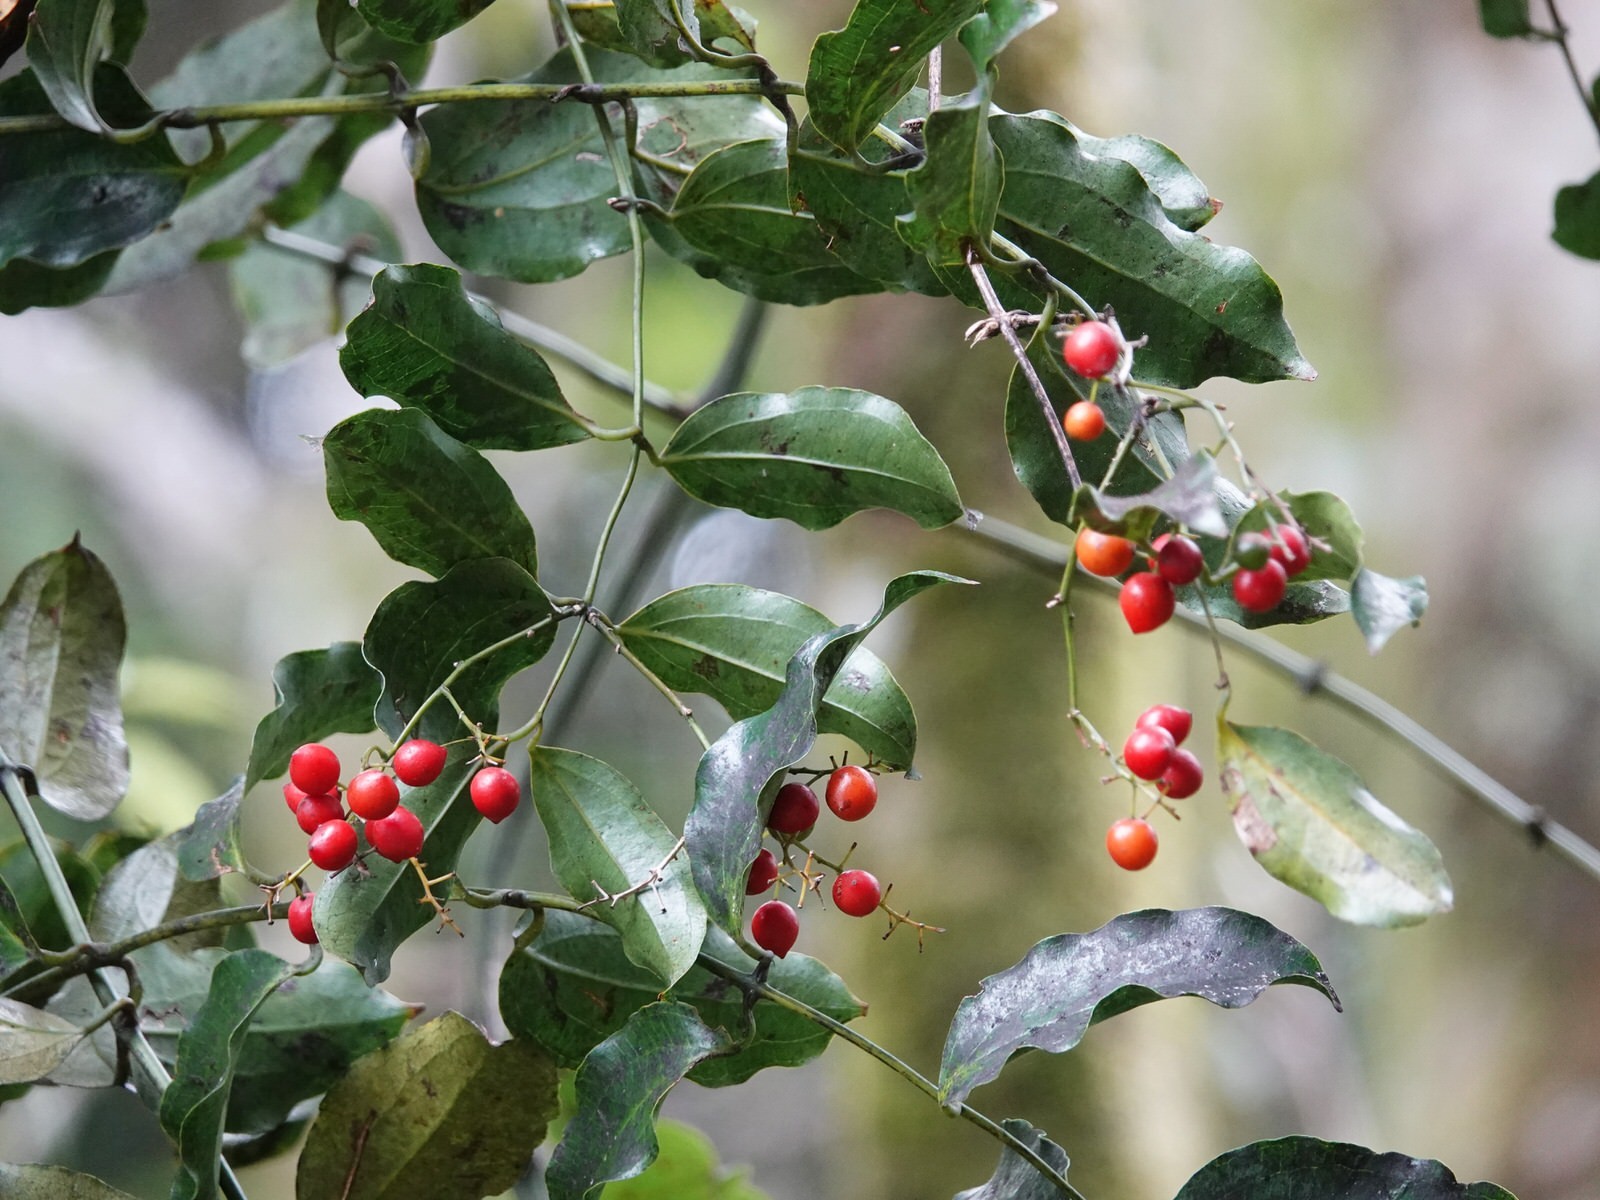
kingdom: Plantae
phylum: Tracheophyta
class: Liliopsida
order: Liliales
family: Ripogonaceae
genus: Ripogonum
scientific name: Ripogonum scandens
